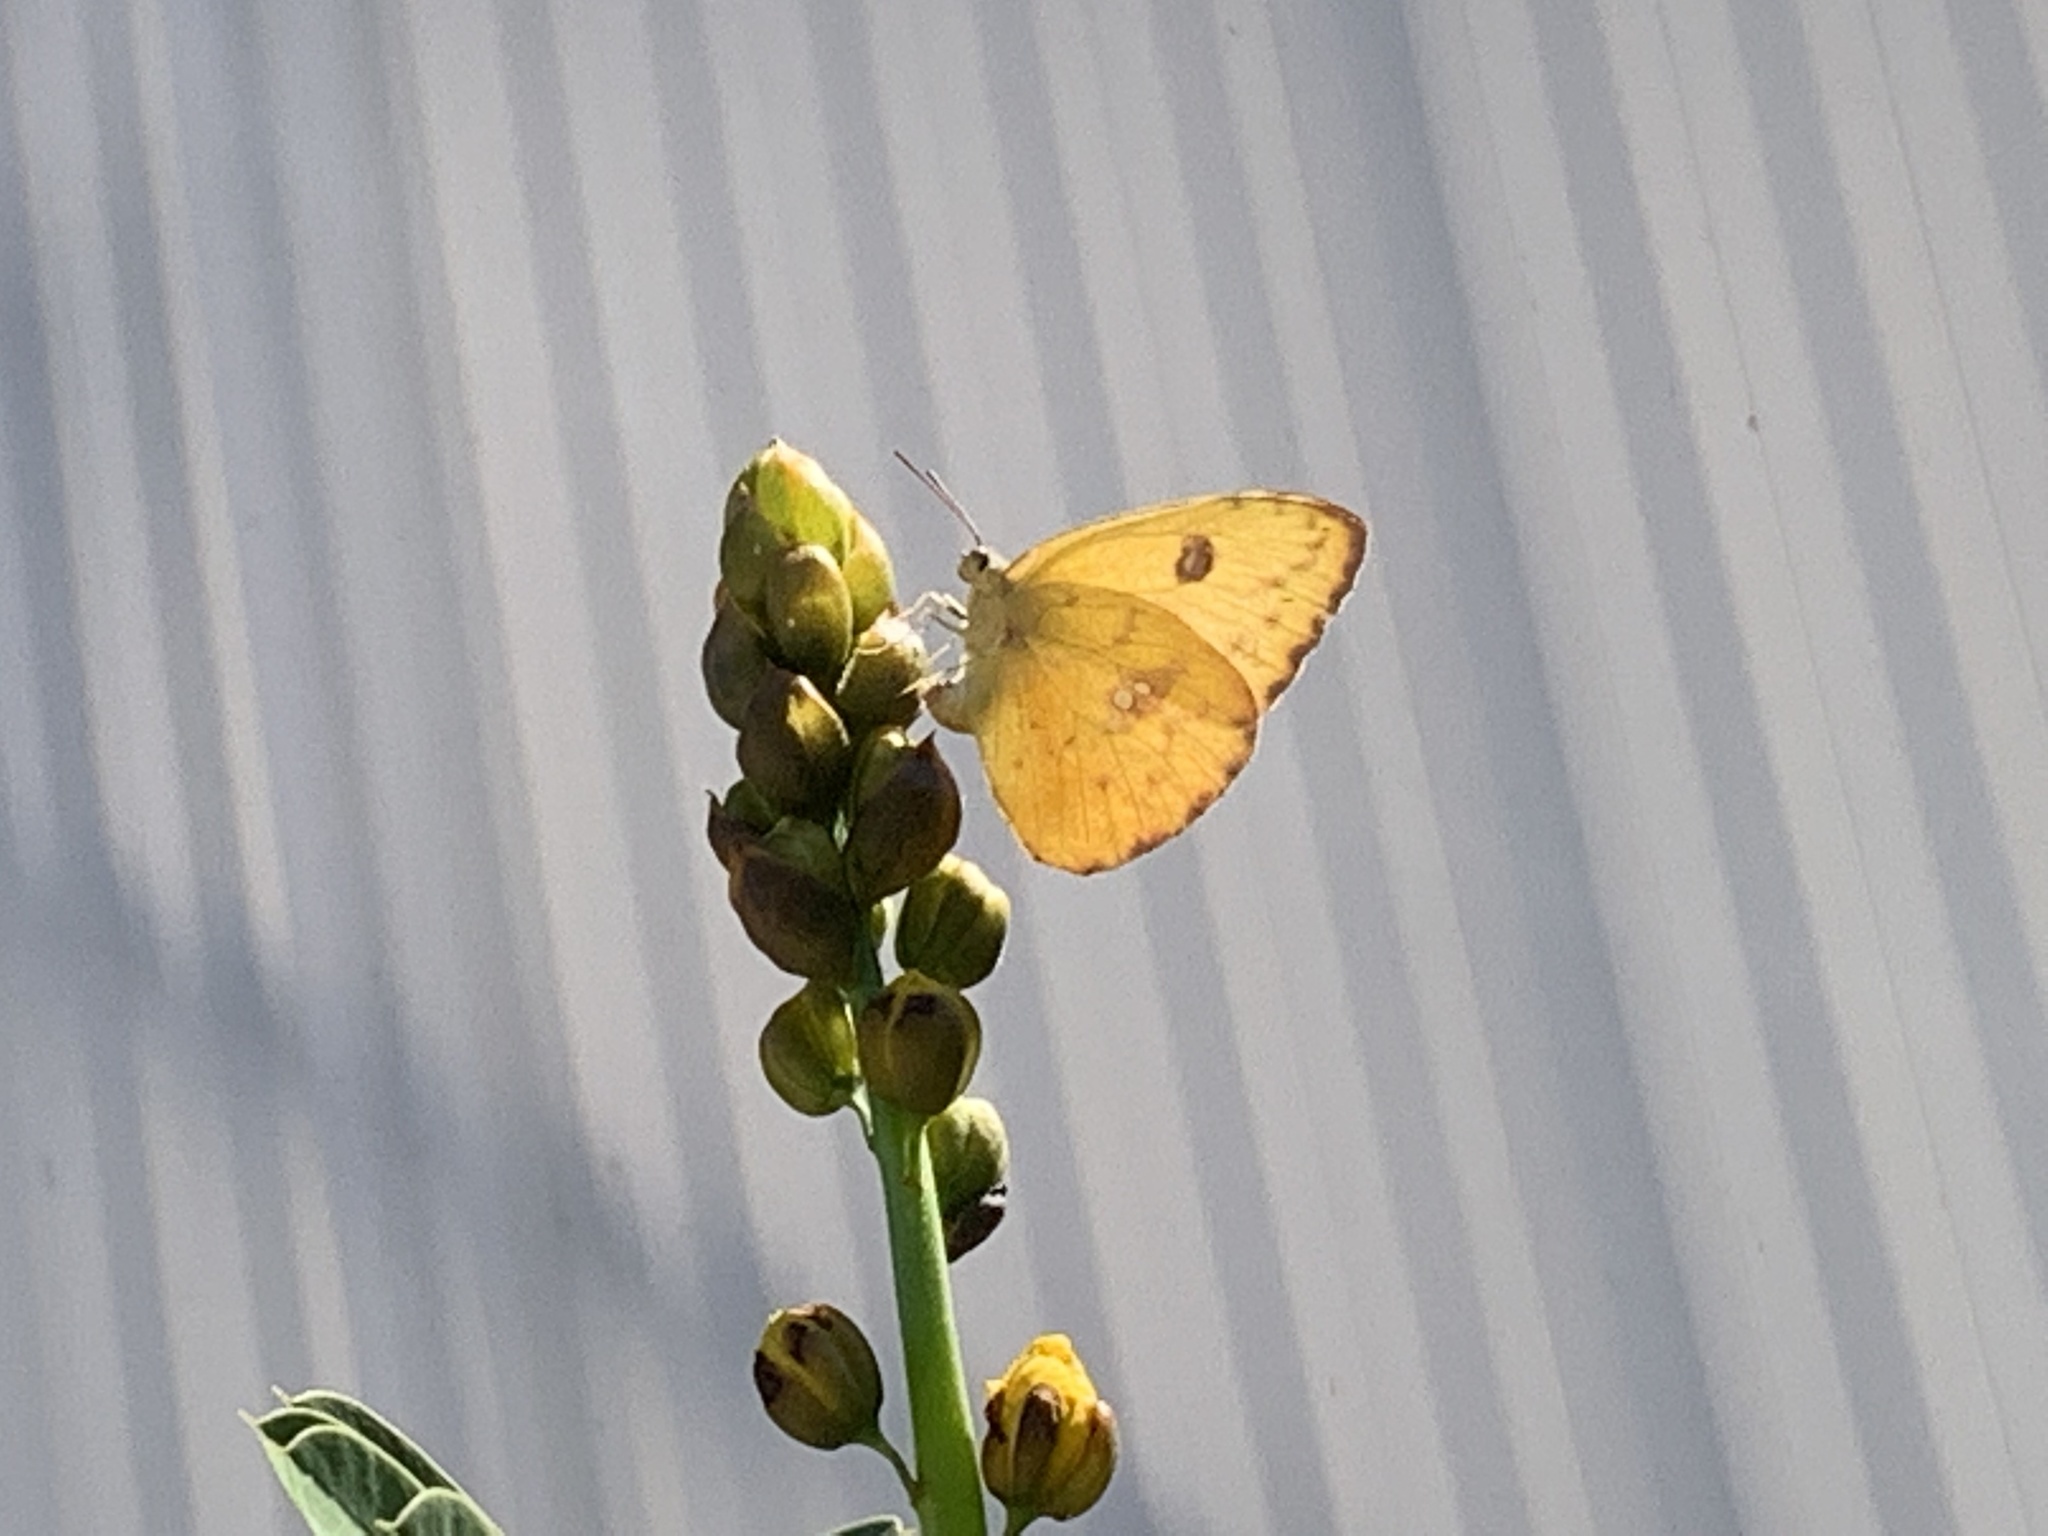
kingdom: Animalia
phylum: Arthropoda
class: Insecta
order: Lepidoptera
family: Pieridae
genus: Phoebis
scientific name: Phoebis sennae
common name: Cloudless sulphur
